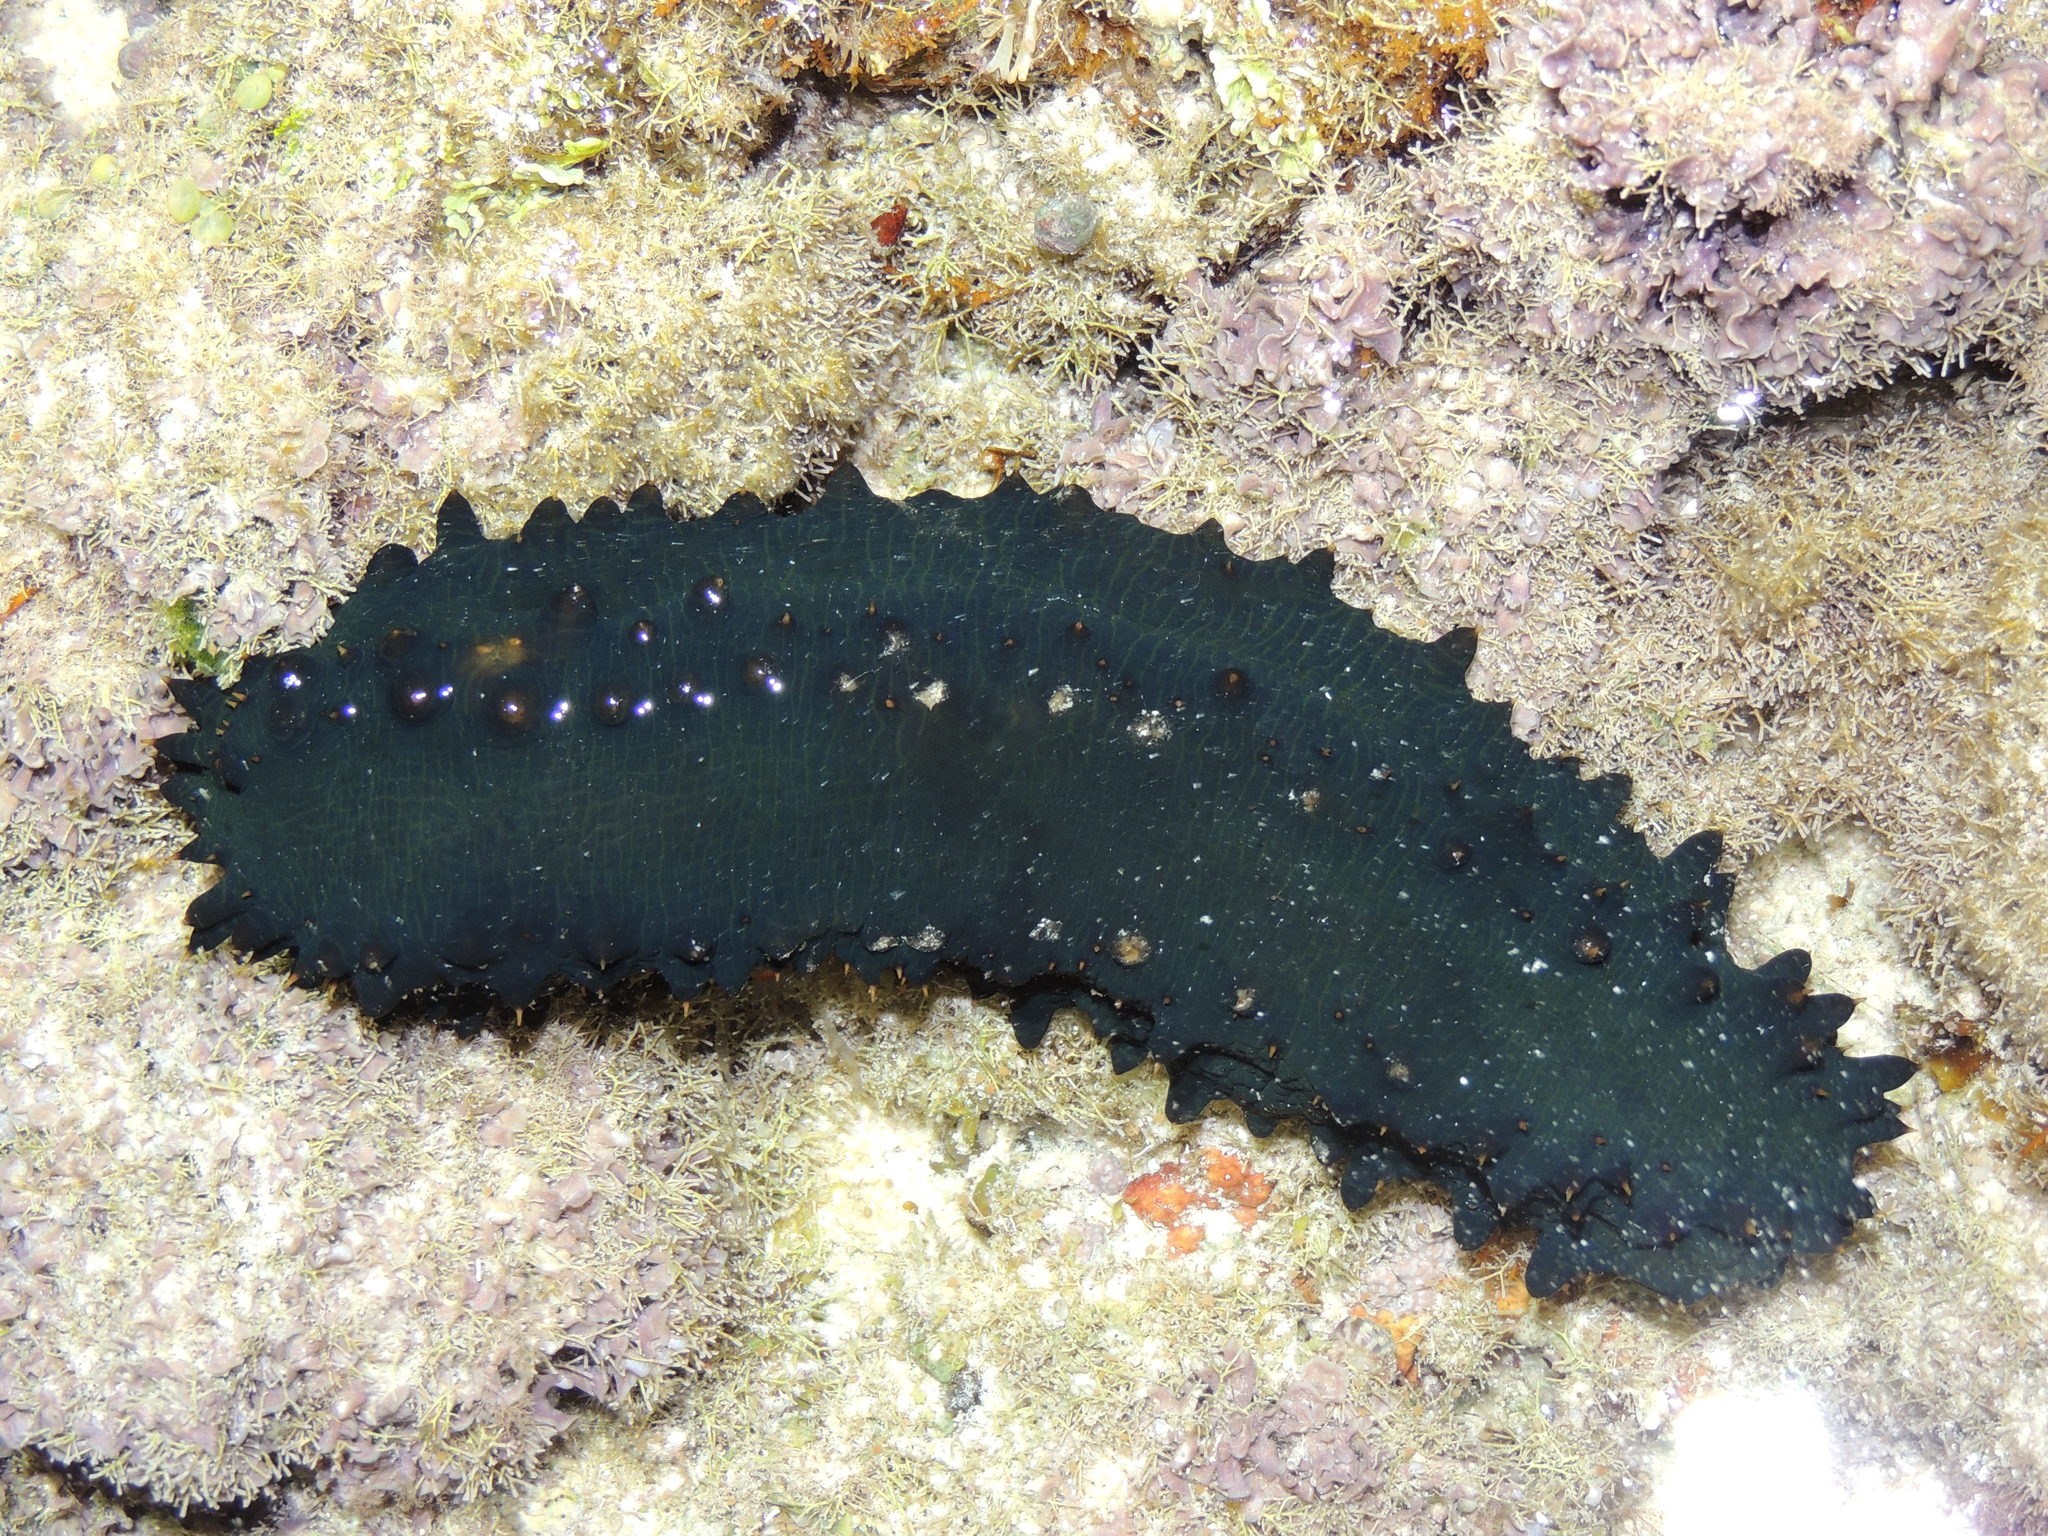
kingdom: Animalia
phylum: Echinodermata
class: Holothuroidea
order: Synallactida
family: Stichopodidae
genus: Stichopus
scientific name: Stichopus chloronotus
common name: Greenfish
